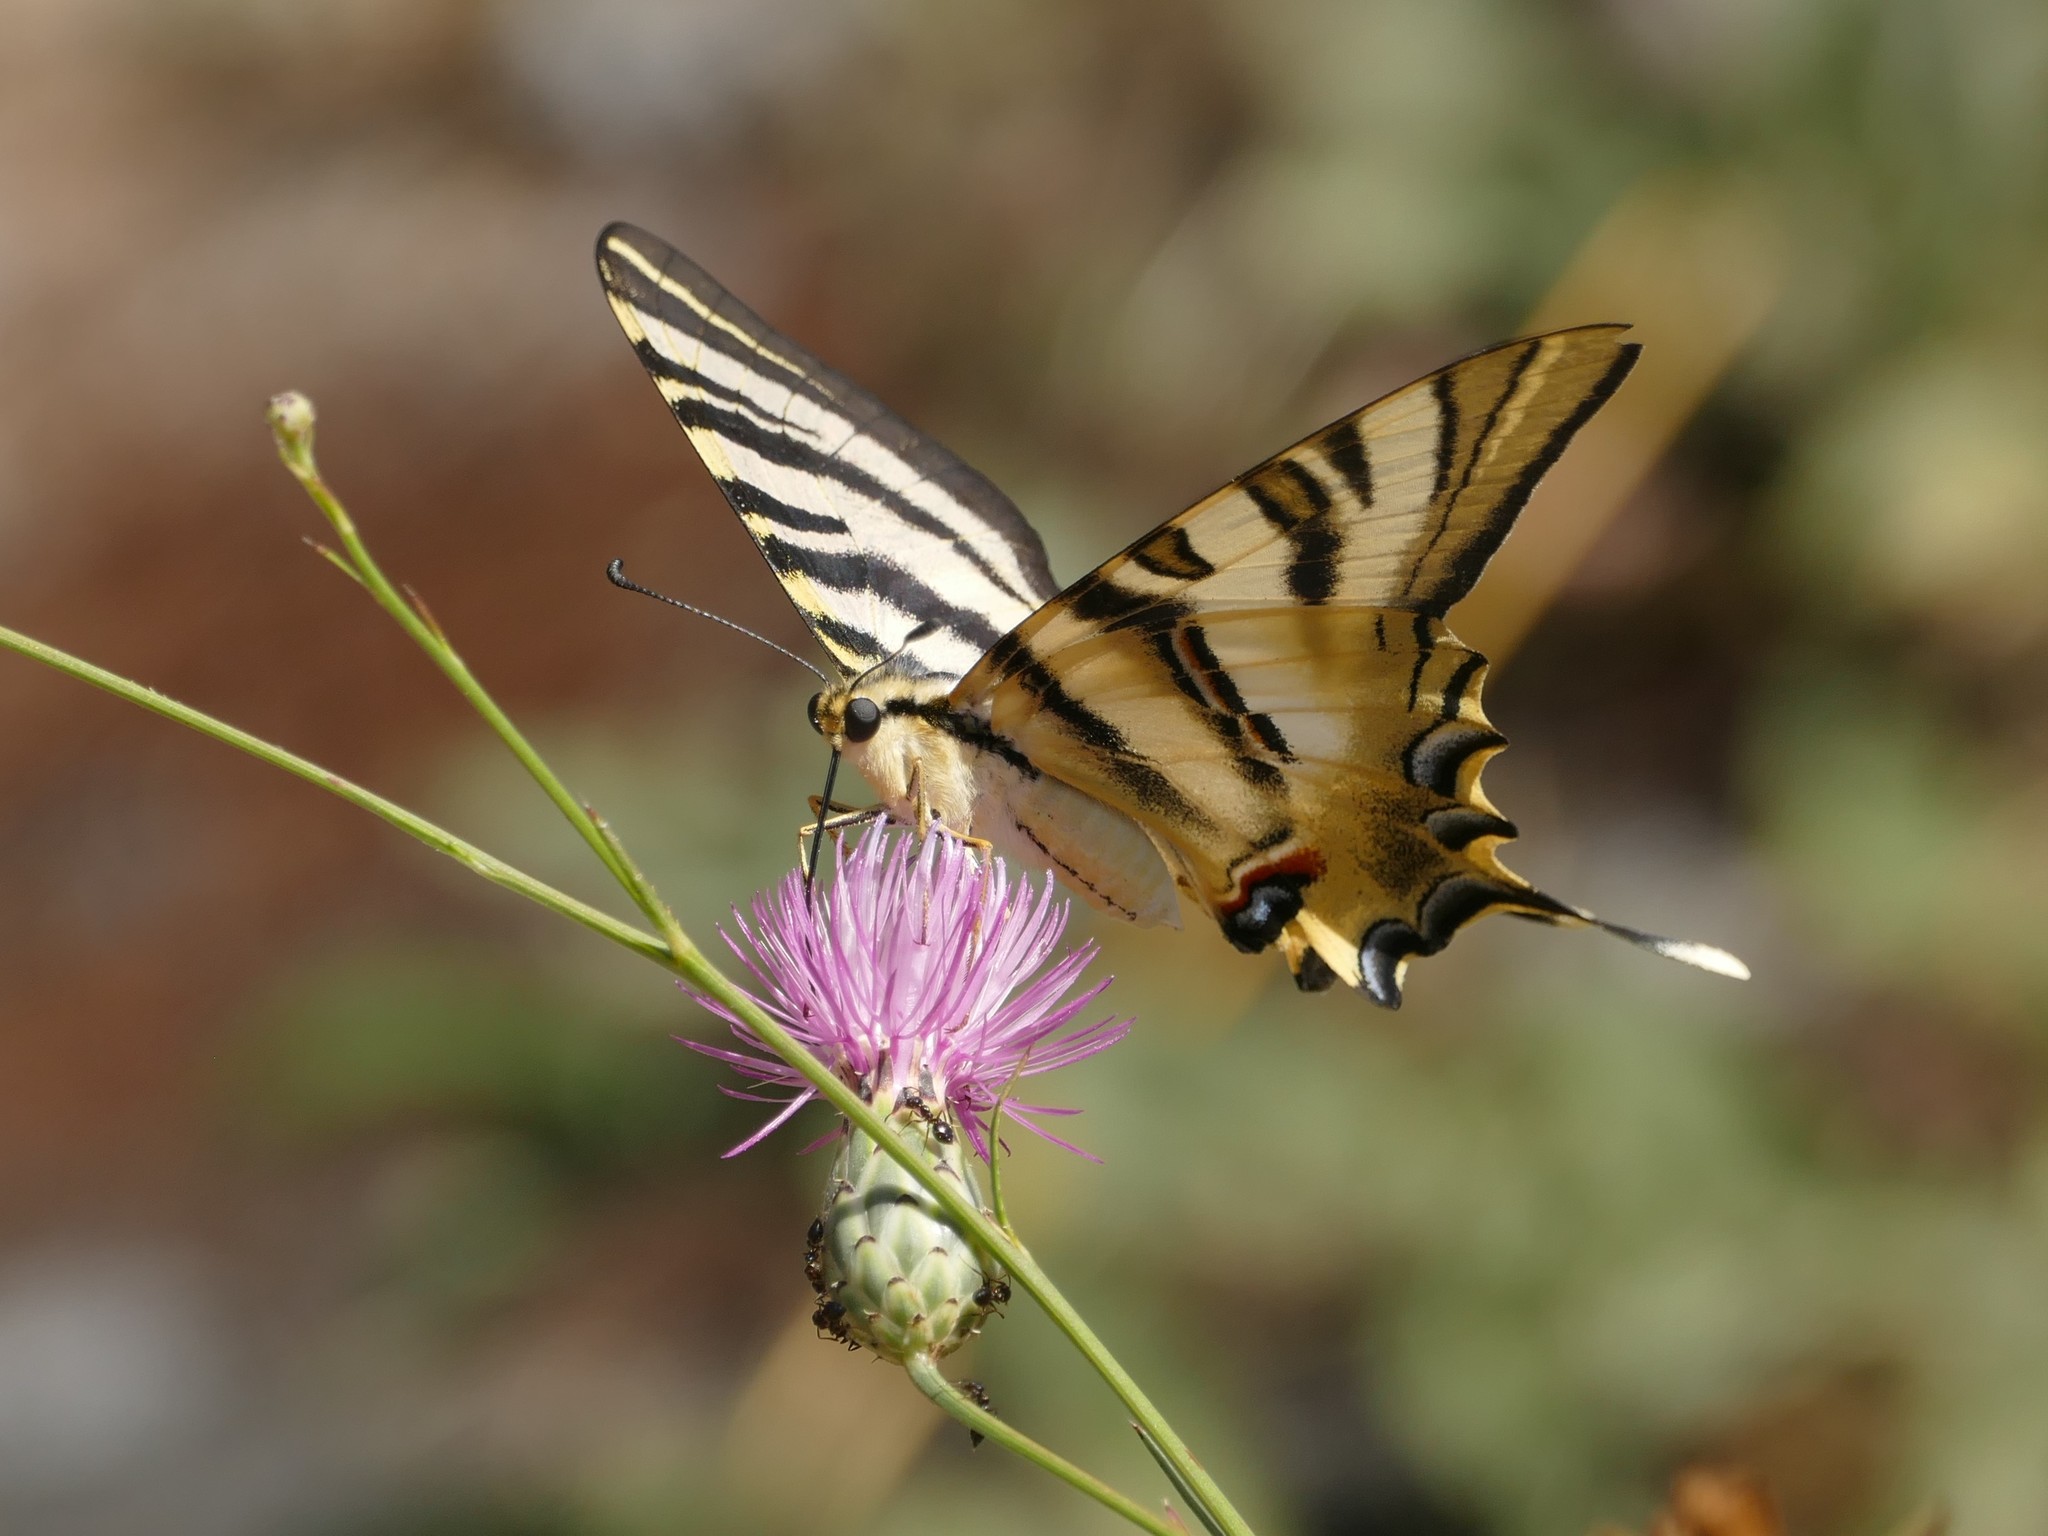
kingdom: Animalia
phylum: Arthropoda
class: Insecta
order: Lepidoptera
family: Papilionidae
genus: Iphiclides
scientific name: Iphiclides feisthamelii
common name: Iberian scarce swallowtail
